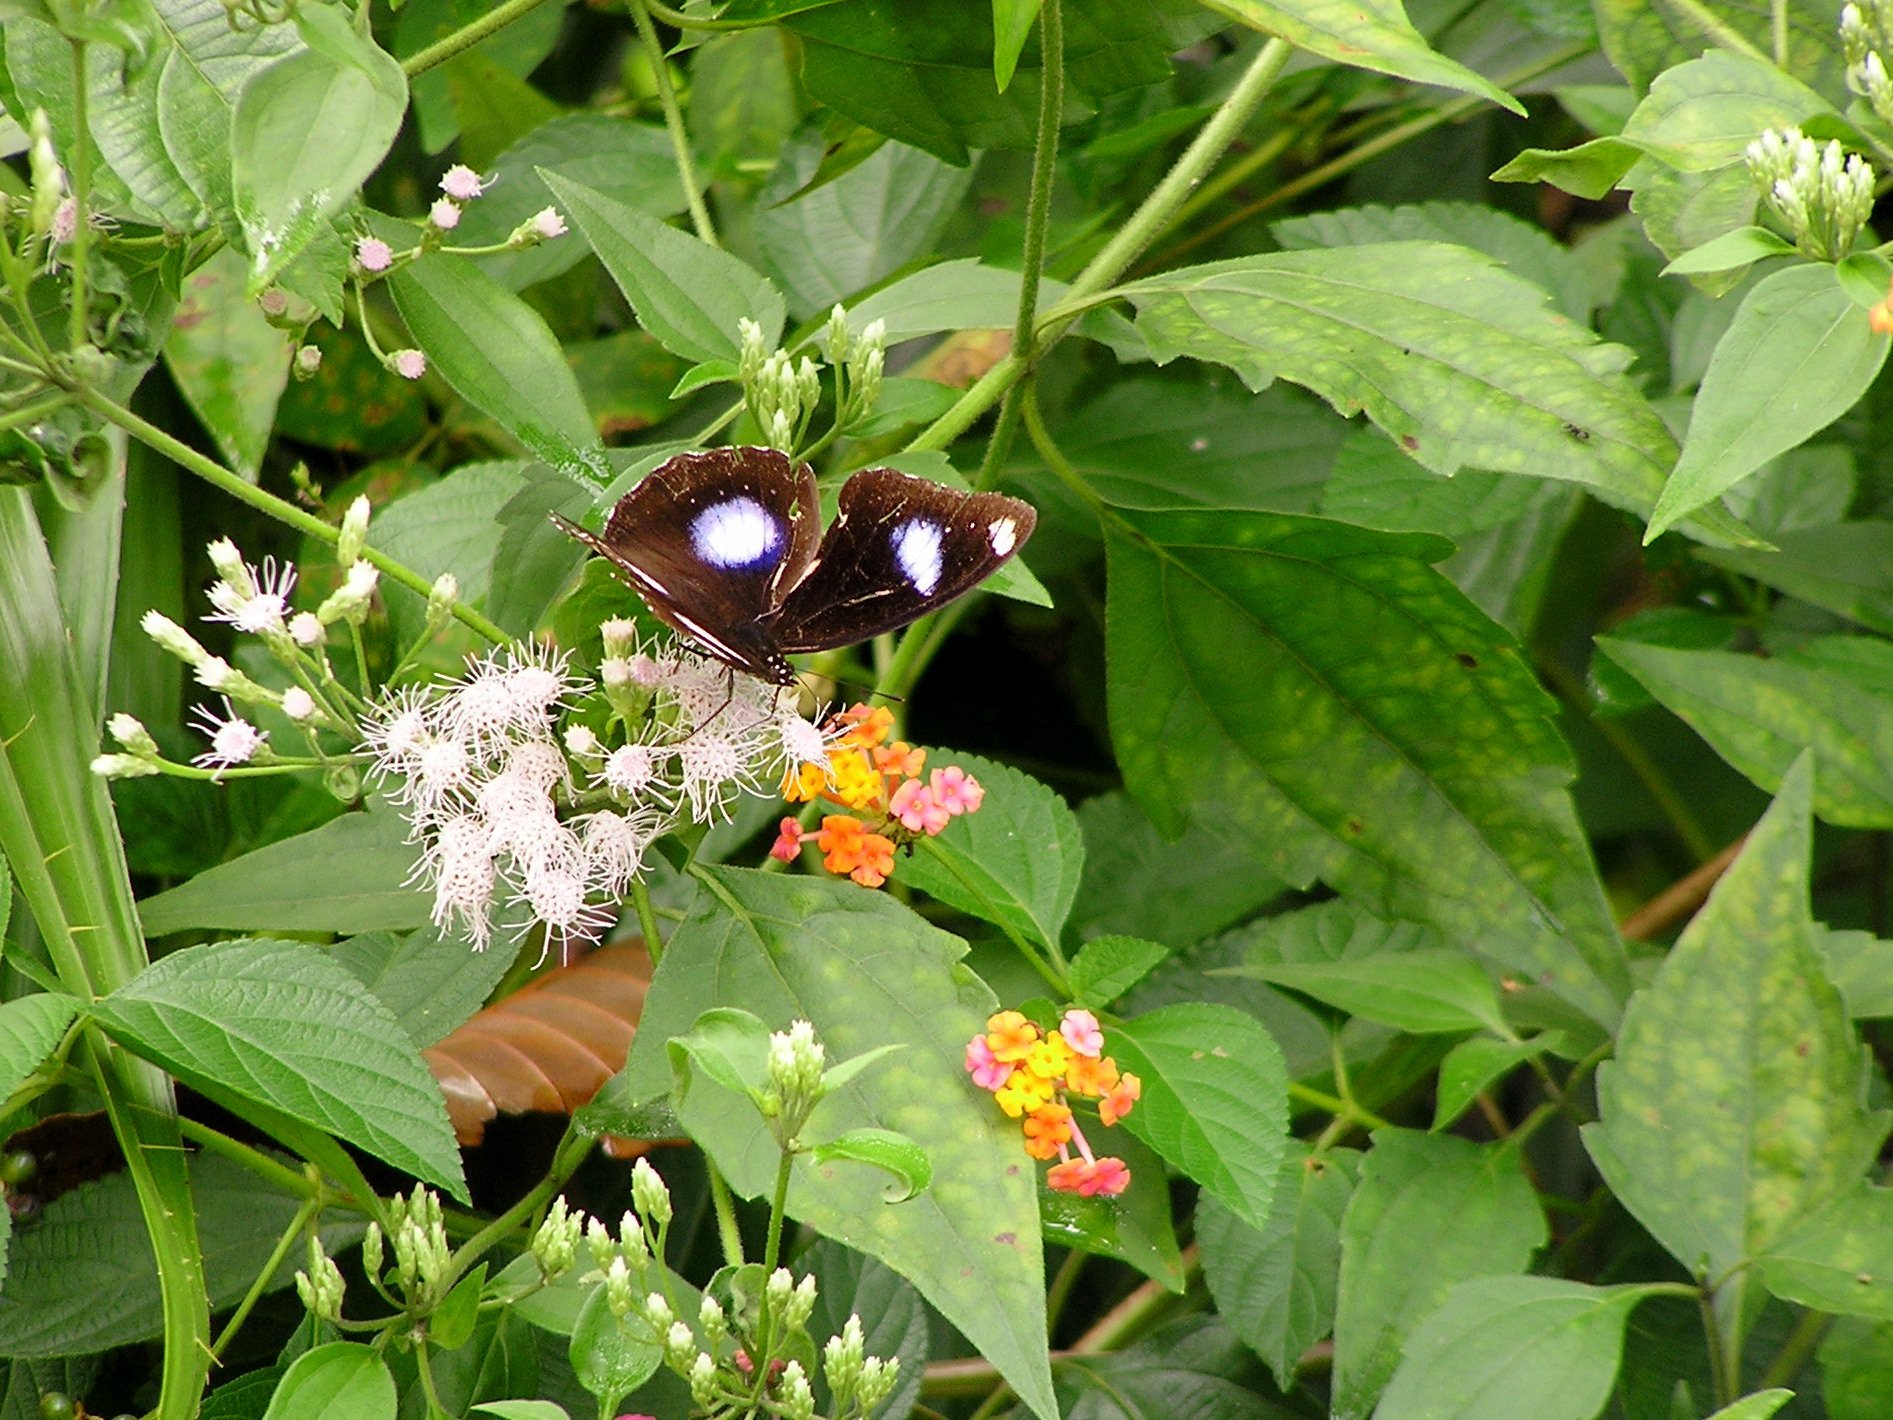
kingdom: Animalia
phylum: Arthropoda
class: Insecta
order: Lepidoptera
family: Nymphalidae
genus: Hypolimnas
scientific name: Hypolimnas bolina
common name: Great eggfly
